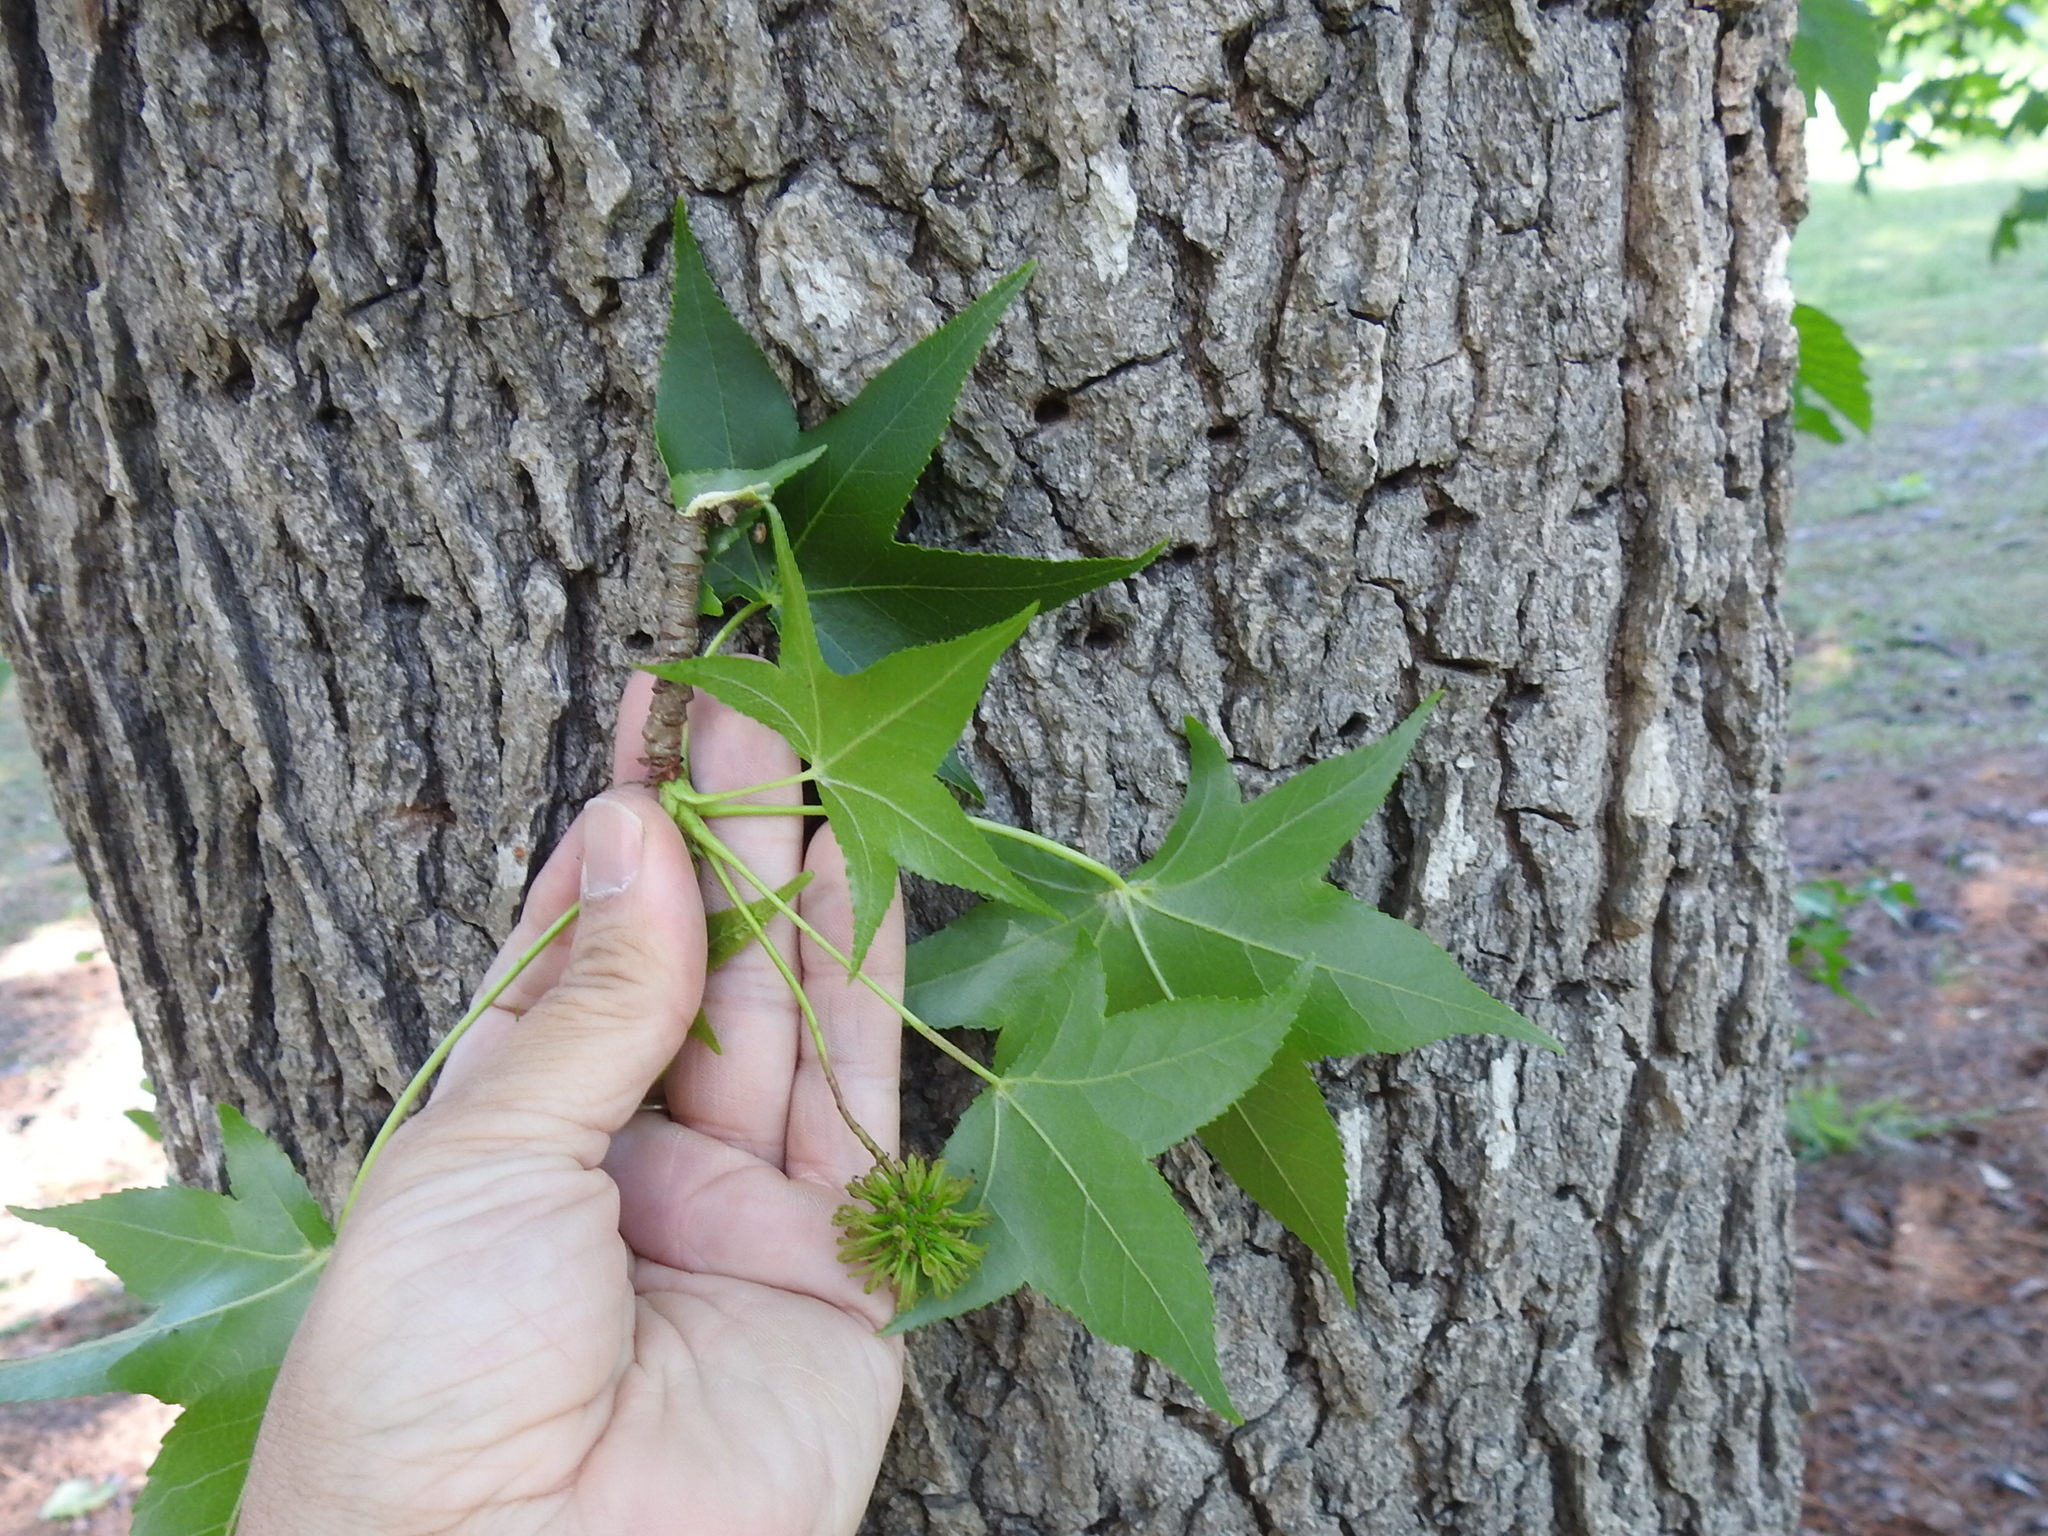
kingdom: Plantae
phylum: Tracheophyta
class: Magnoliopsida
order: Saxifragales
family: Altingiaceae
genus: Liquidambar
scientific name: Liquidambar styraciflua
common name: Sweet gum
